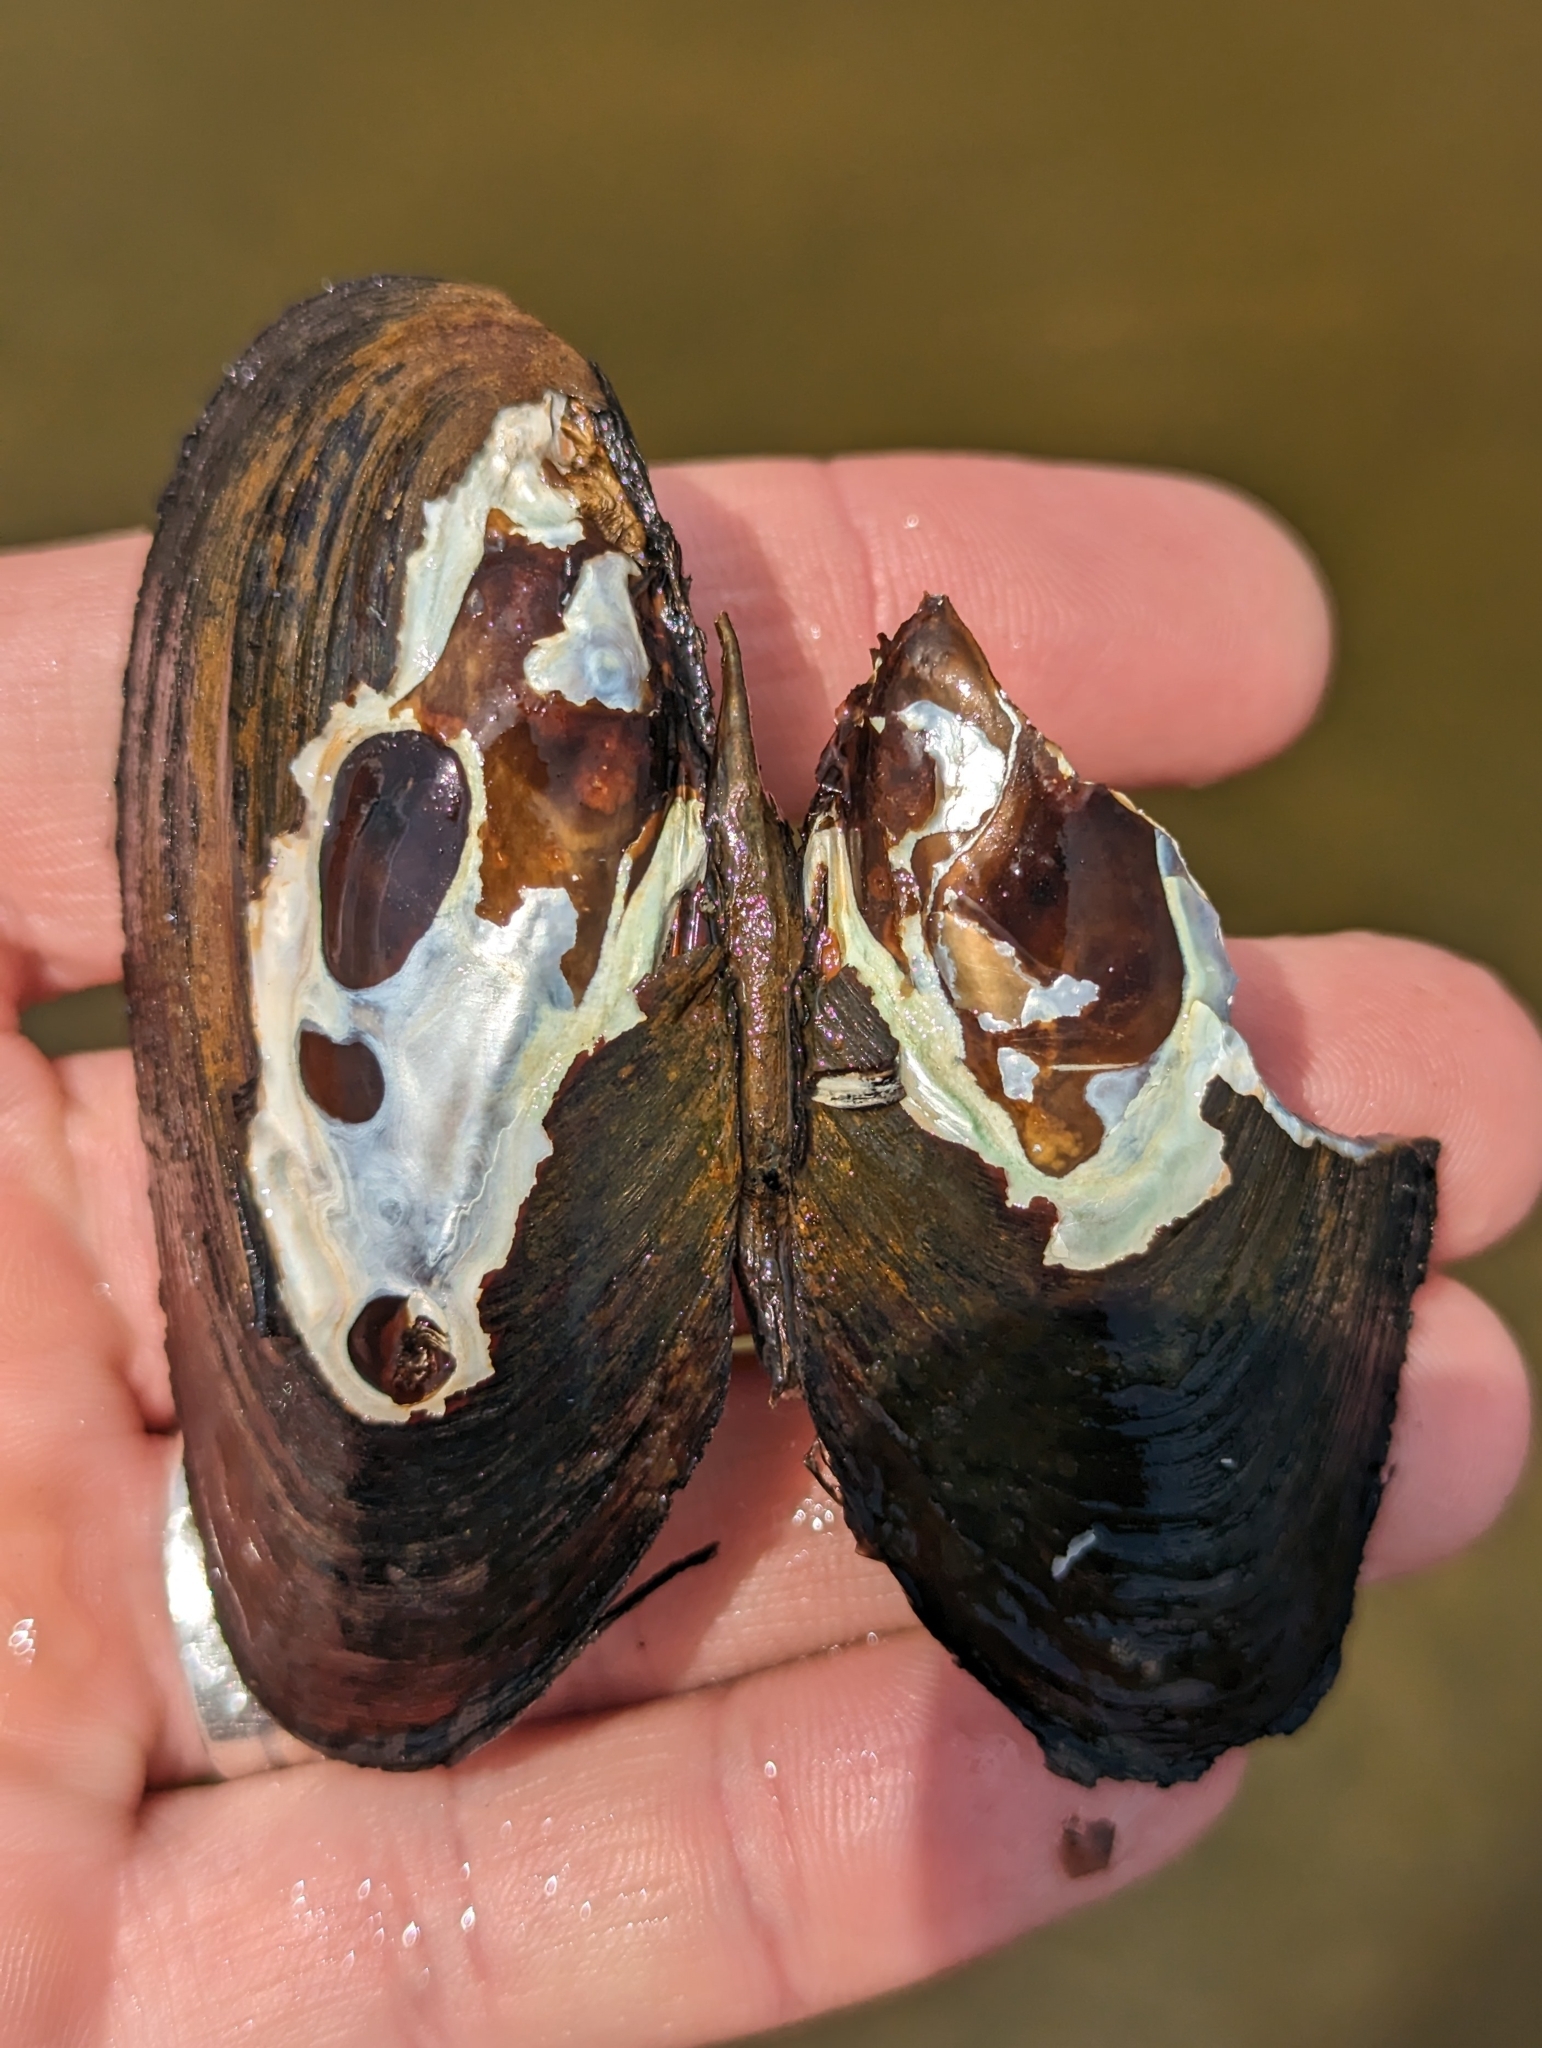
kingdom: Animalia
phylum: Mollusca
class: Bivalvia
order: Unionida
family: Unionidae
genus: Elliptio
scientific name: Elliptio complanata
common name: Eastern elliptio
